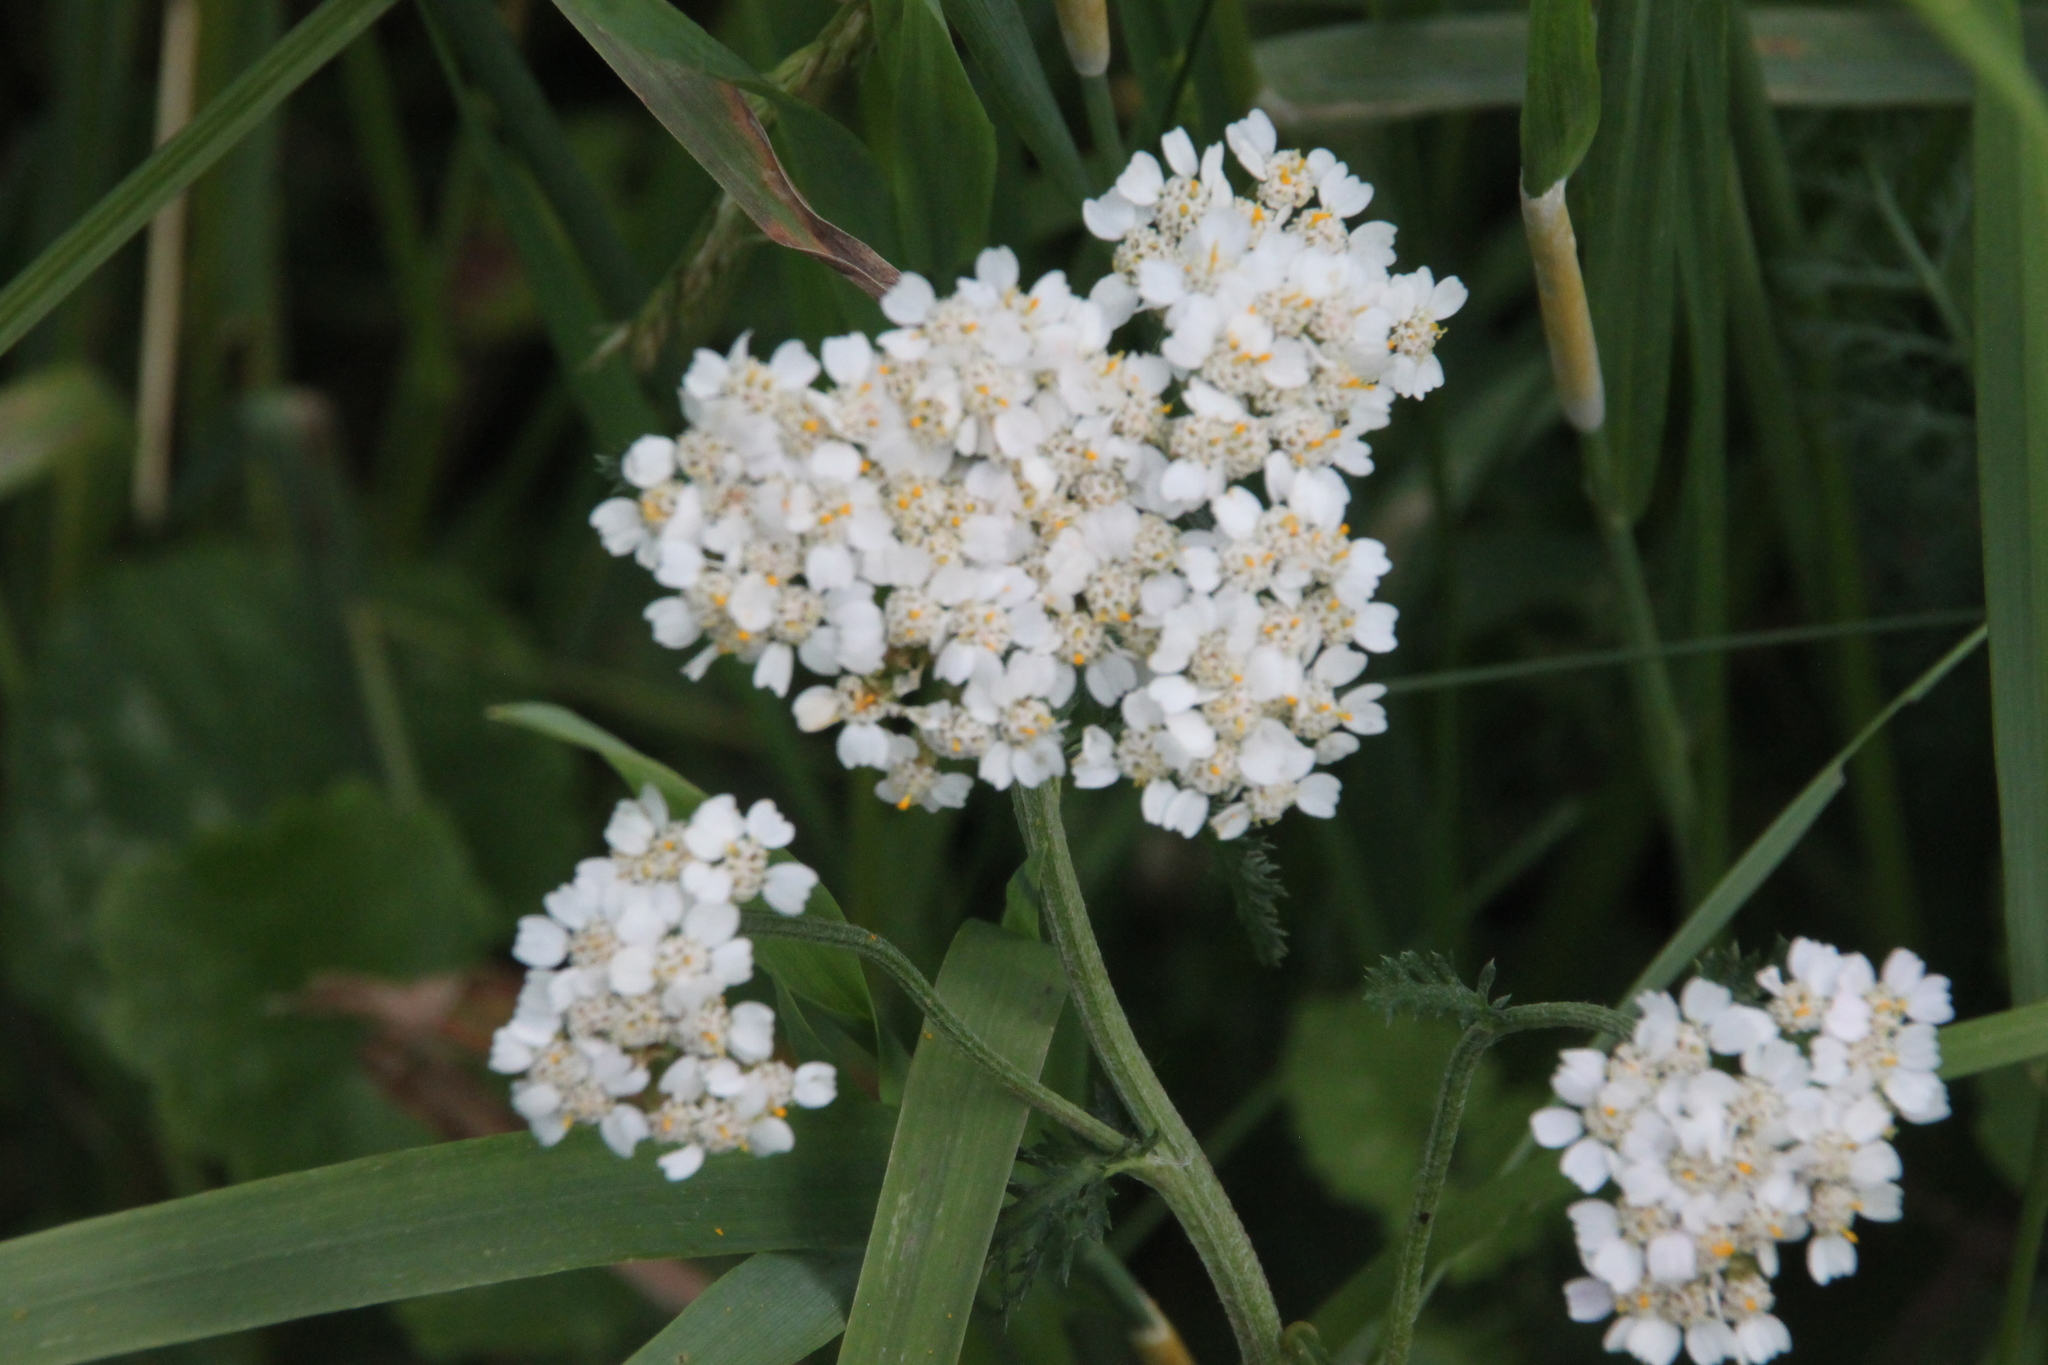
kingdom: Plantae
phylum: Tracheophyta
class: Magnoliopsida
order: Asterales
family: Asteraceae
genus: Achillea
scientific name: Achillea millefolium
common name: Yarrow
